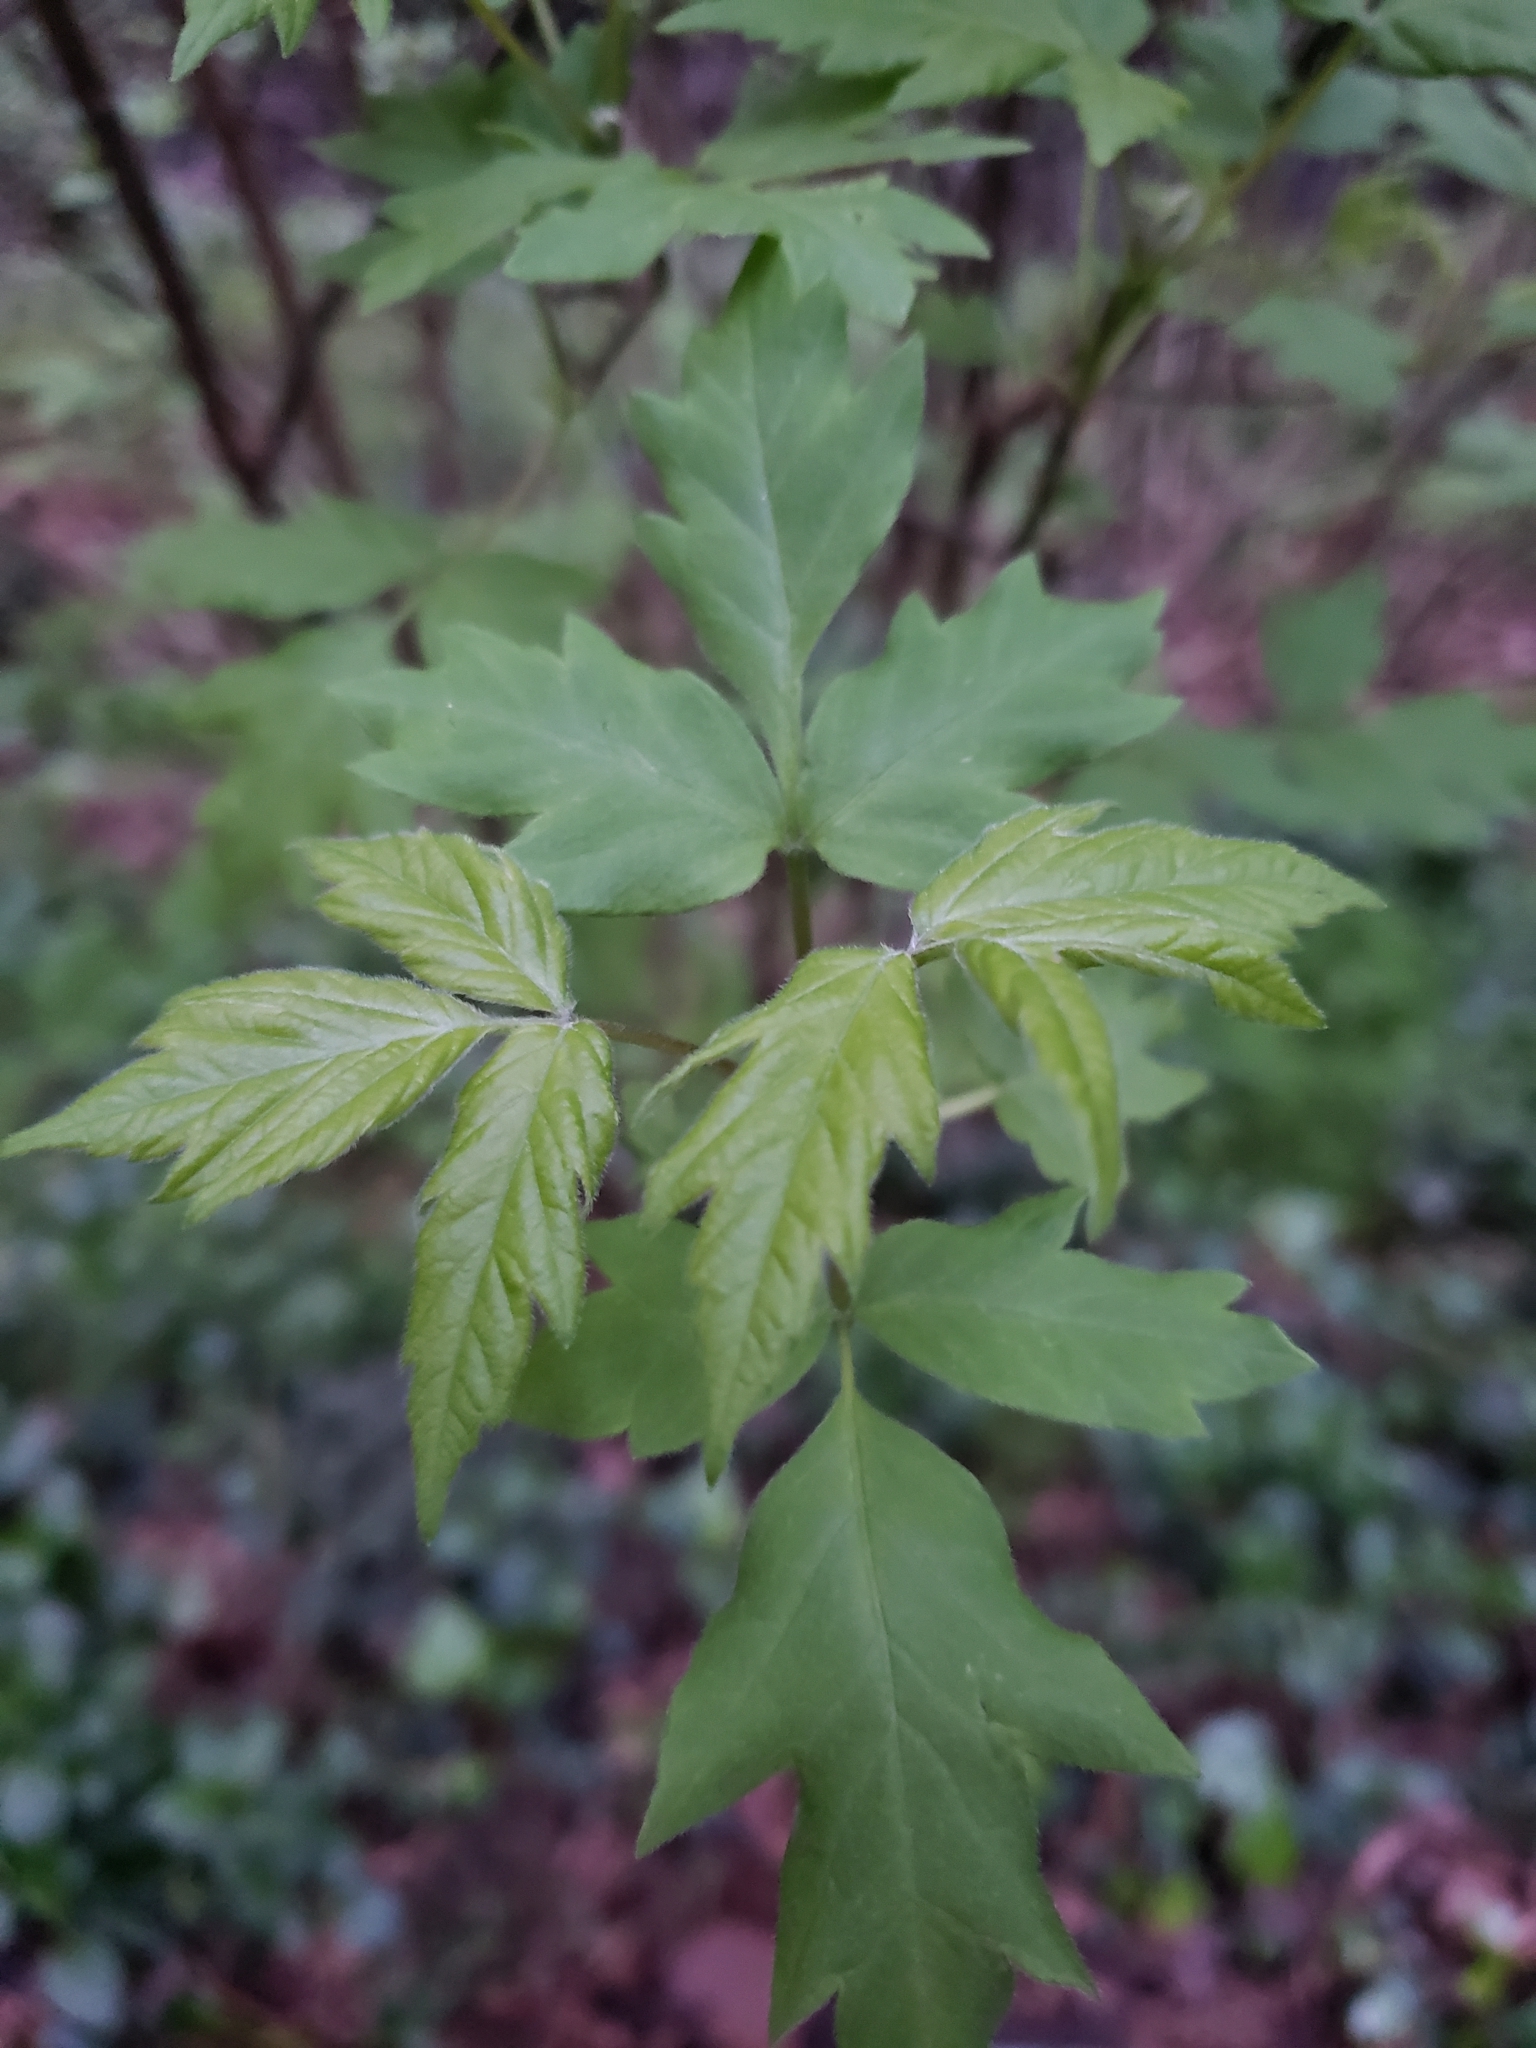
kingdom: Plantae
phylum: Tracheophyta
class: Magnoliopsida
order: Sapindales
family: Sapindaceae
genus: Acer
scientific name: Acer negundo
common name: Ashleaf maple
